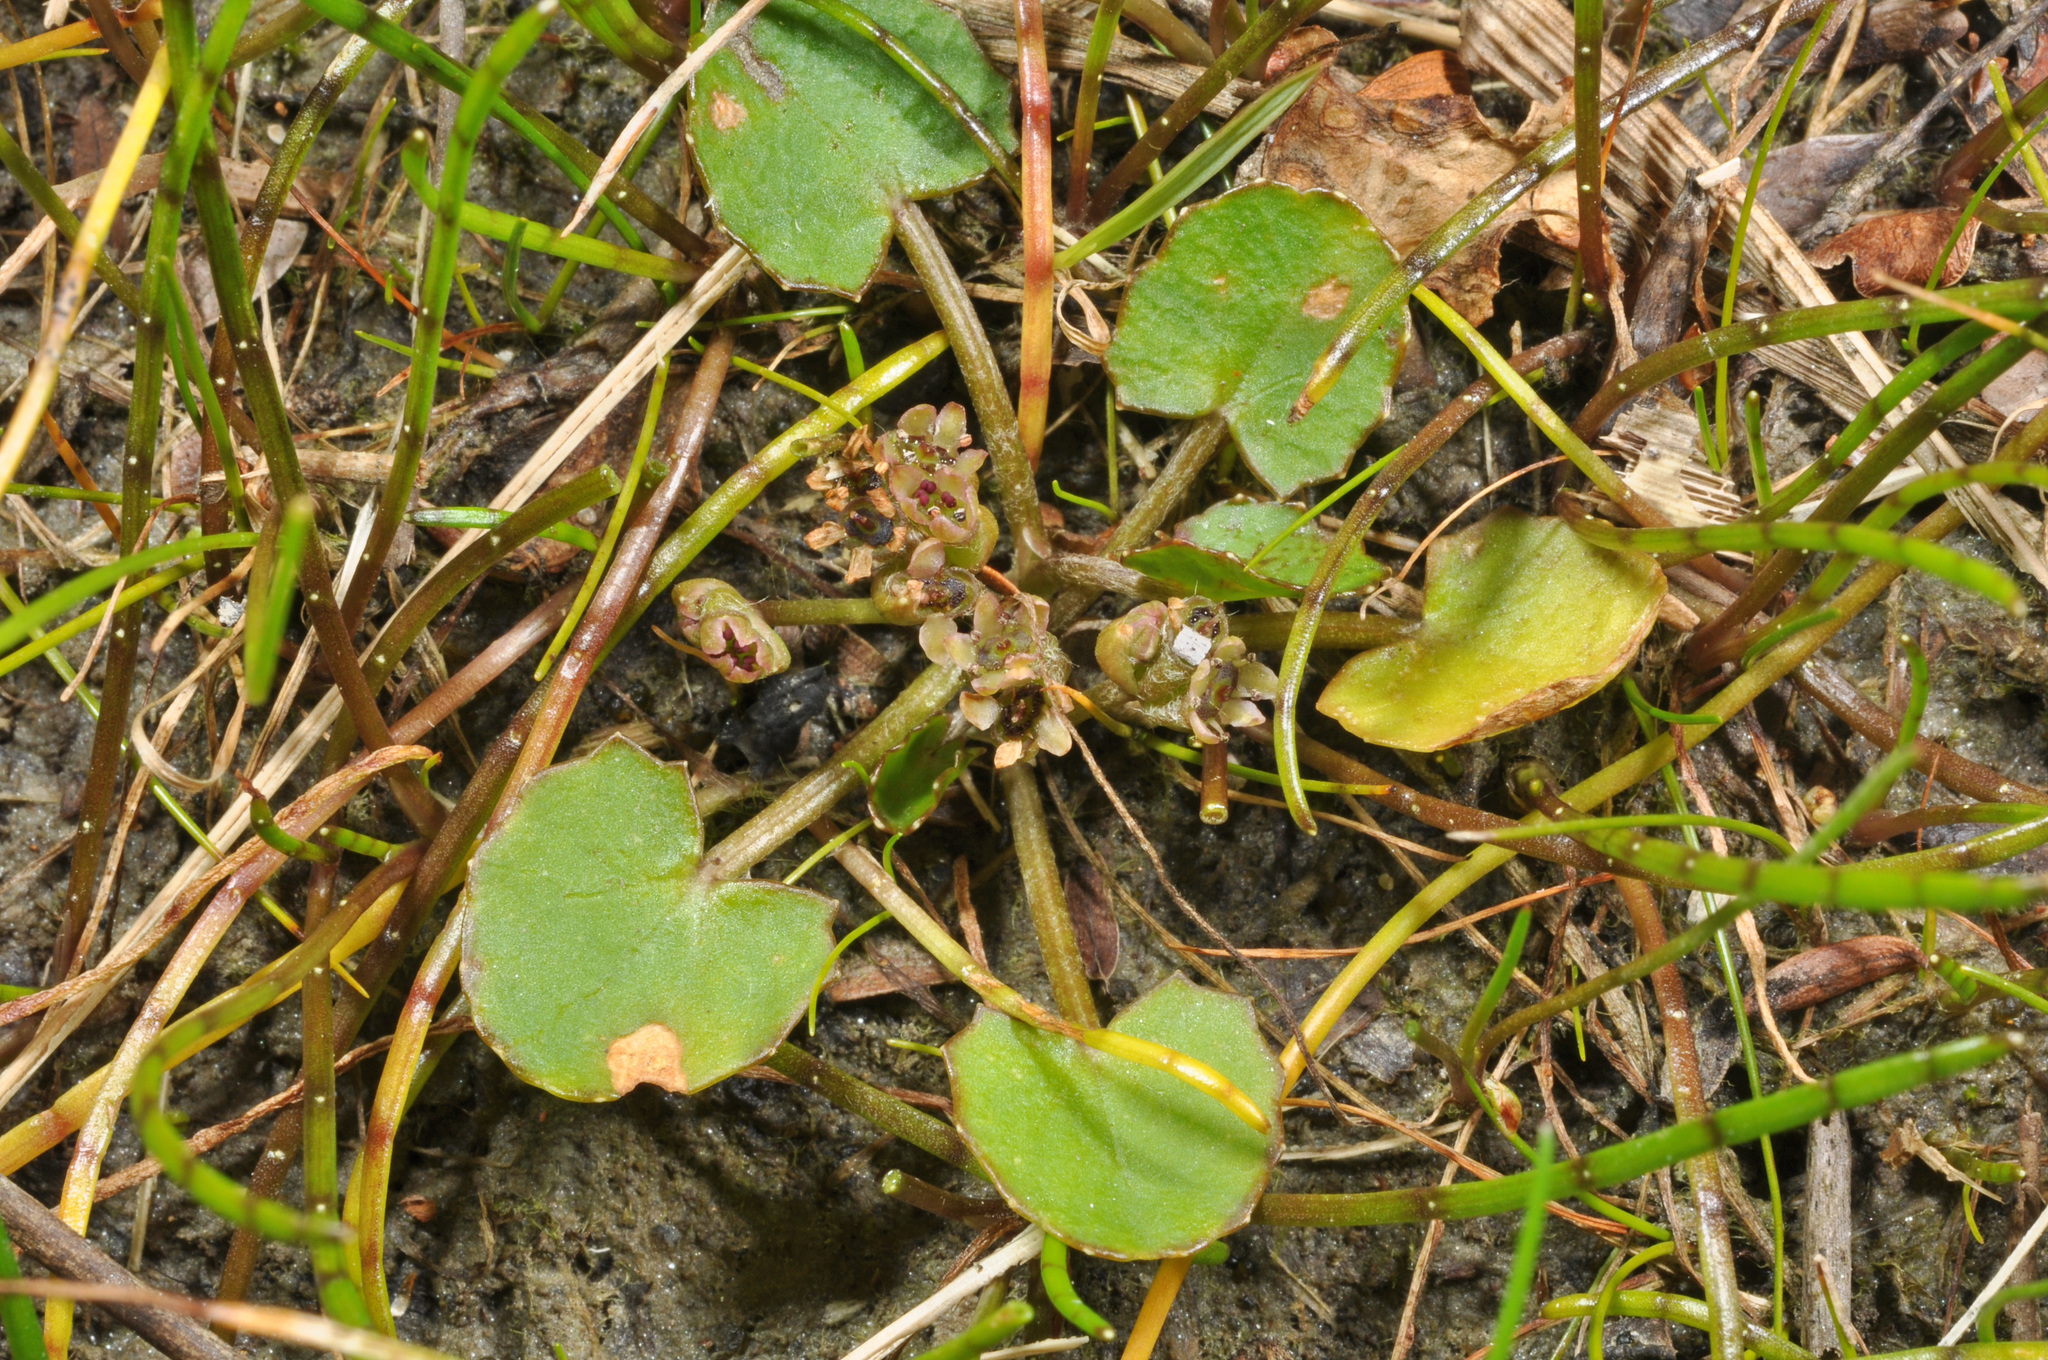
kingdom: Plantae
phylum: Tracheophyta
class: Magnoliopsida
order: Apiales
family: Apiaceae
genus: Centella
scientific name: Centella uniflora
